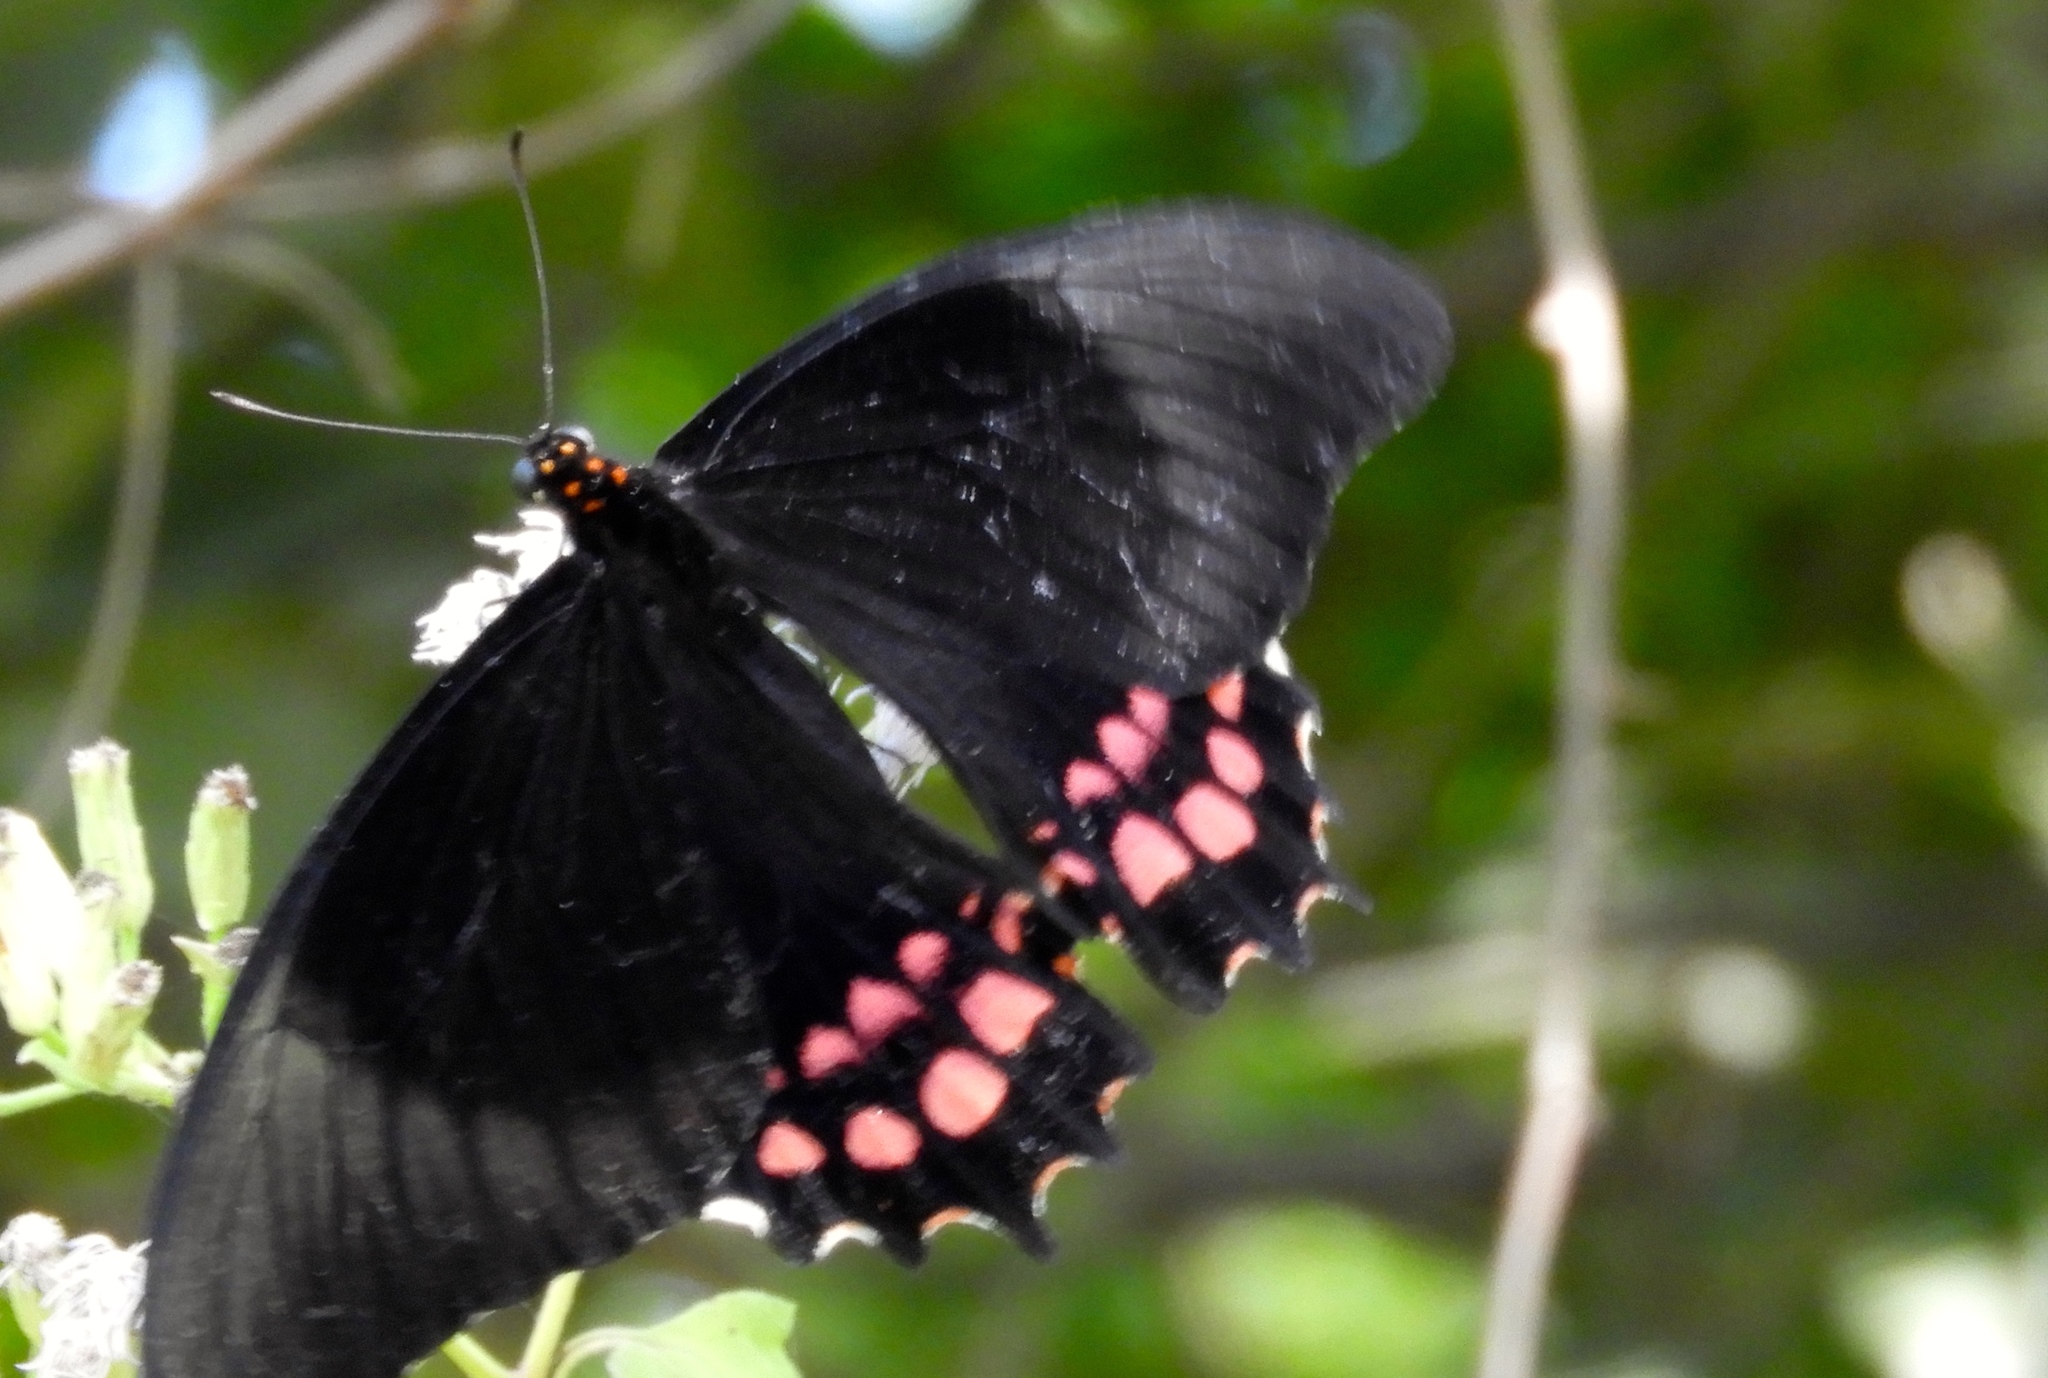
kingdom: Animalia
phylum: Arthropoda
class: Insecta
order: Lepidoptera
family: Papilionidae
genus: Heraclides
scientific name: Heraclides rogeri
